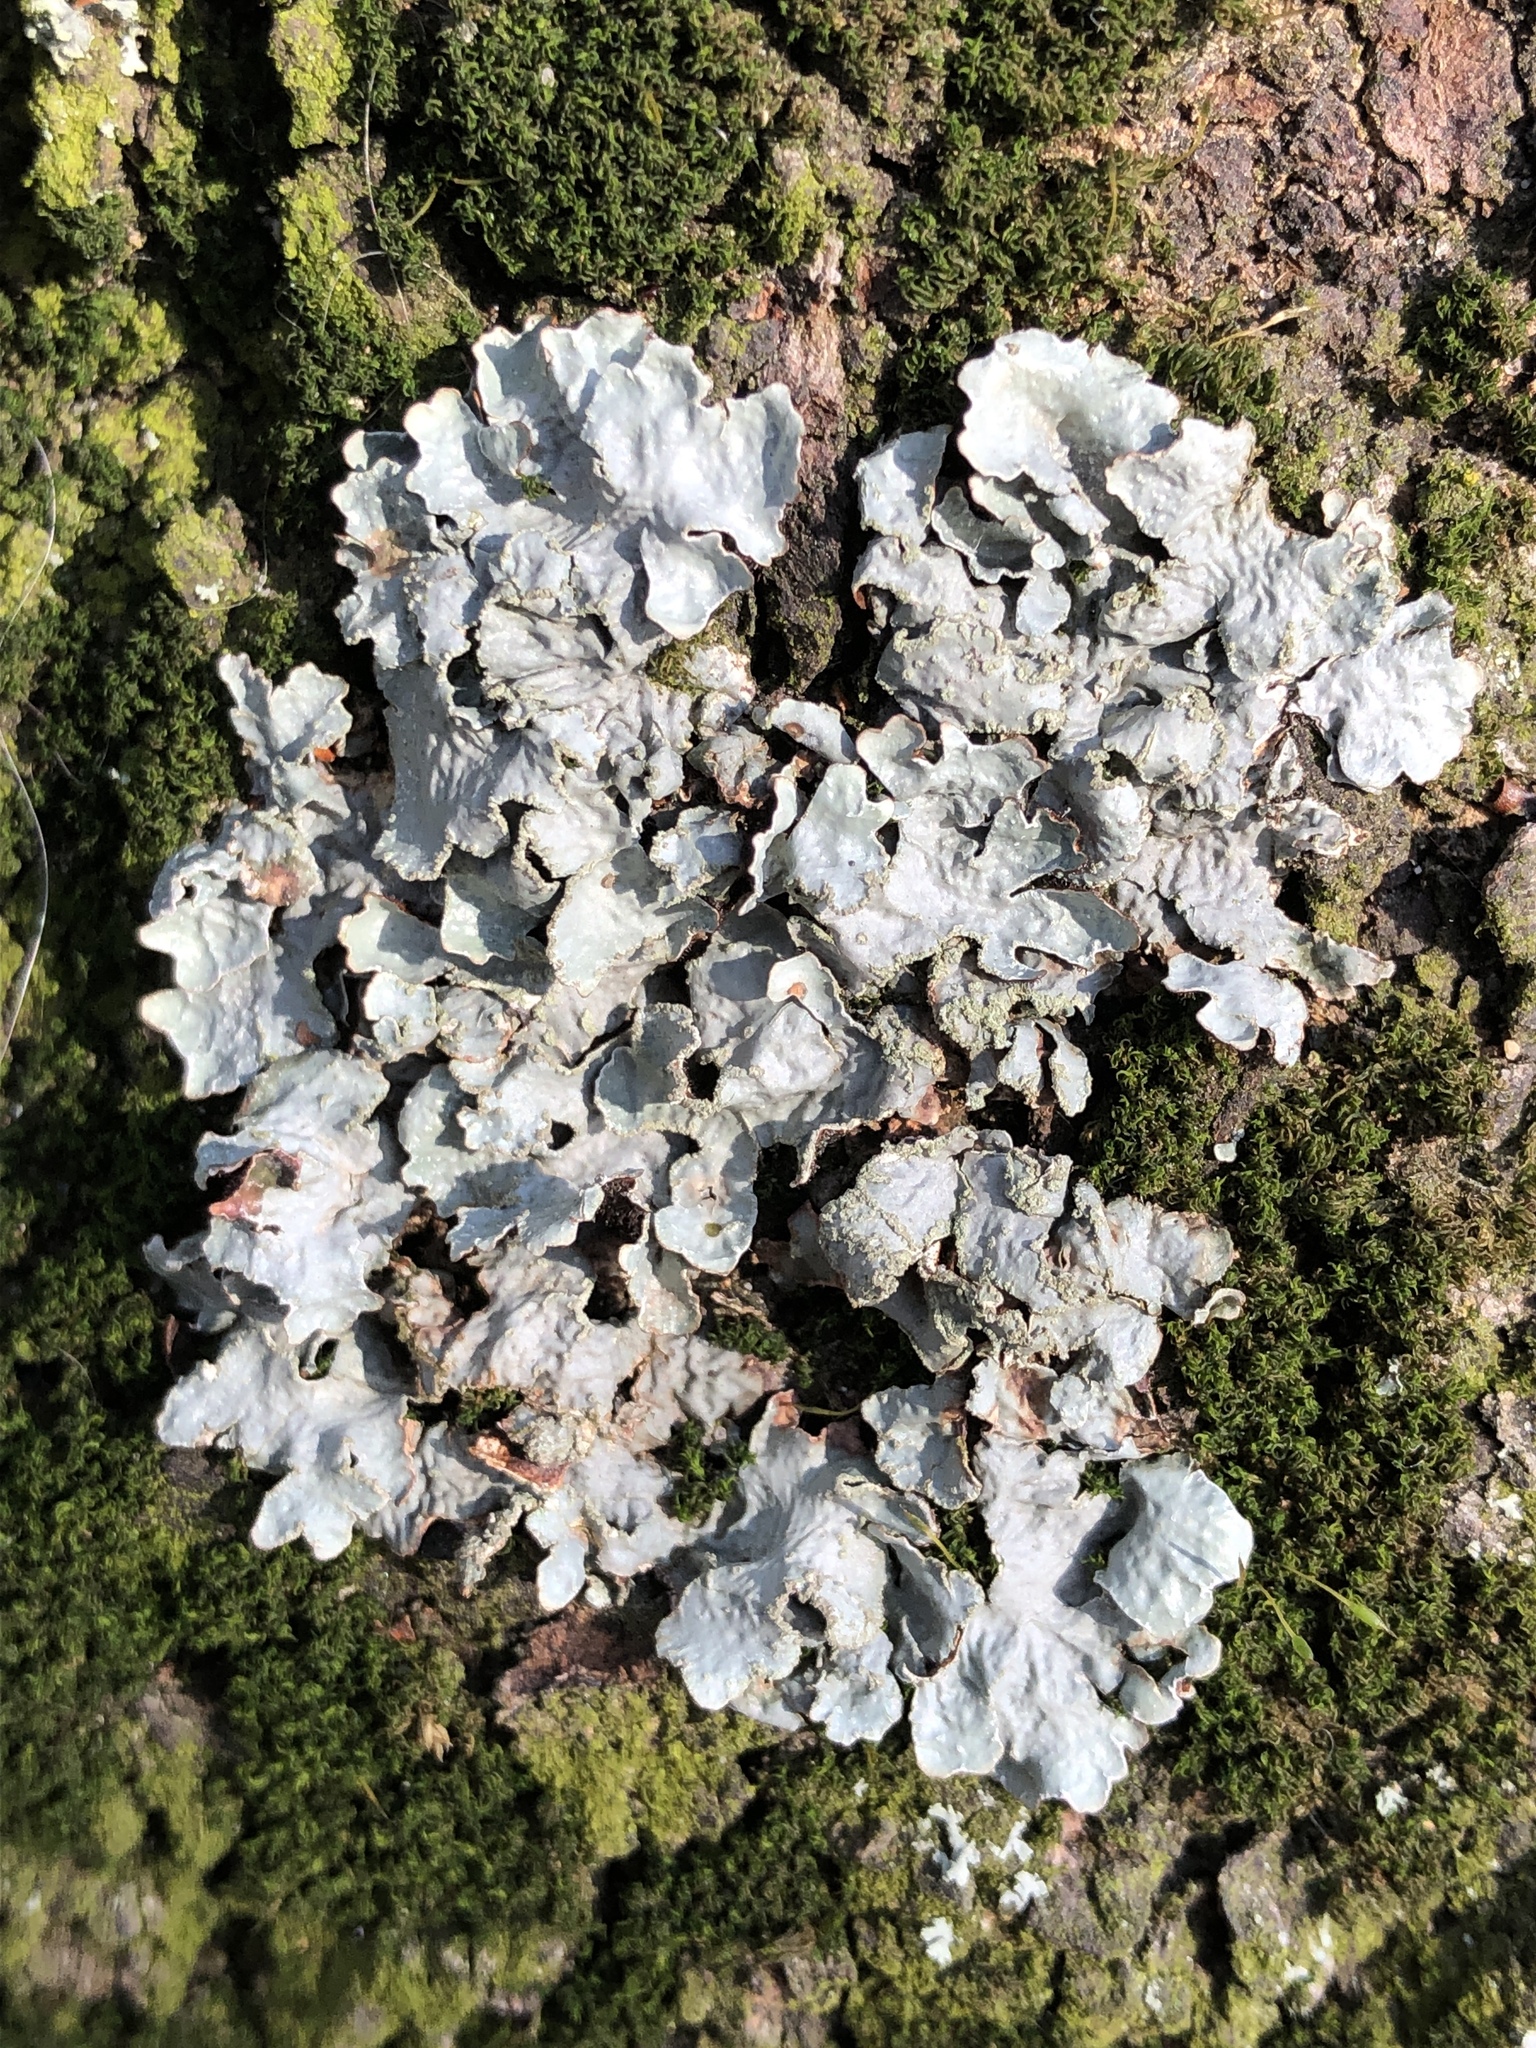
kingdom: Fungi
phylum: Ascomycota
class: Lecanoromycetes
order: Lecanorales
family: Parmeliaceae
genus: Parmelia
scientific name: Parmelia sulcata
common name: Netted shield lichen
